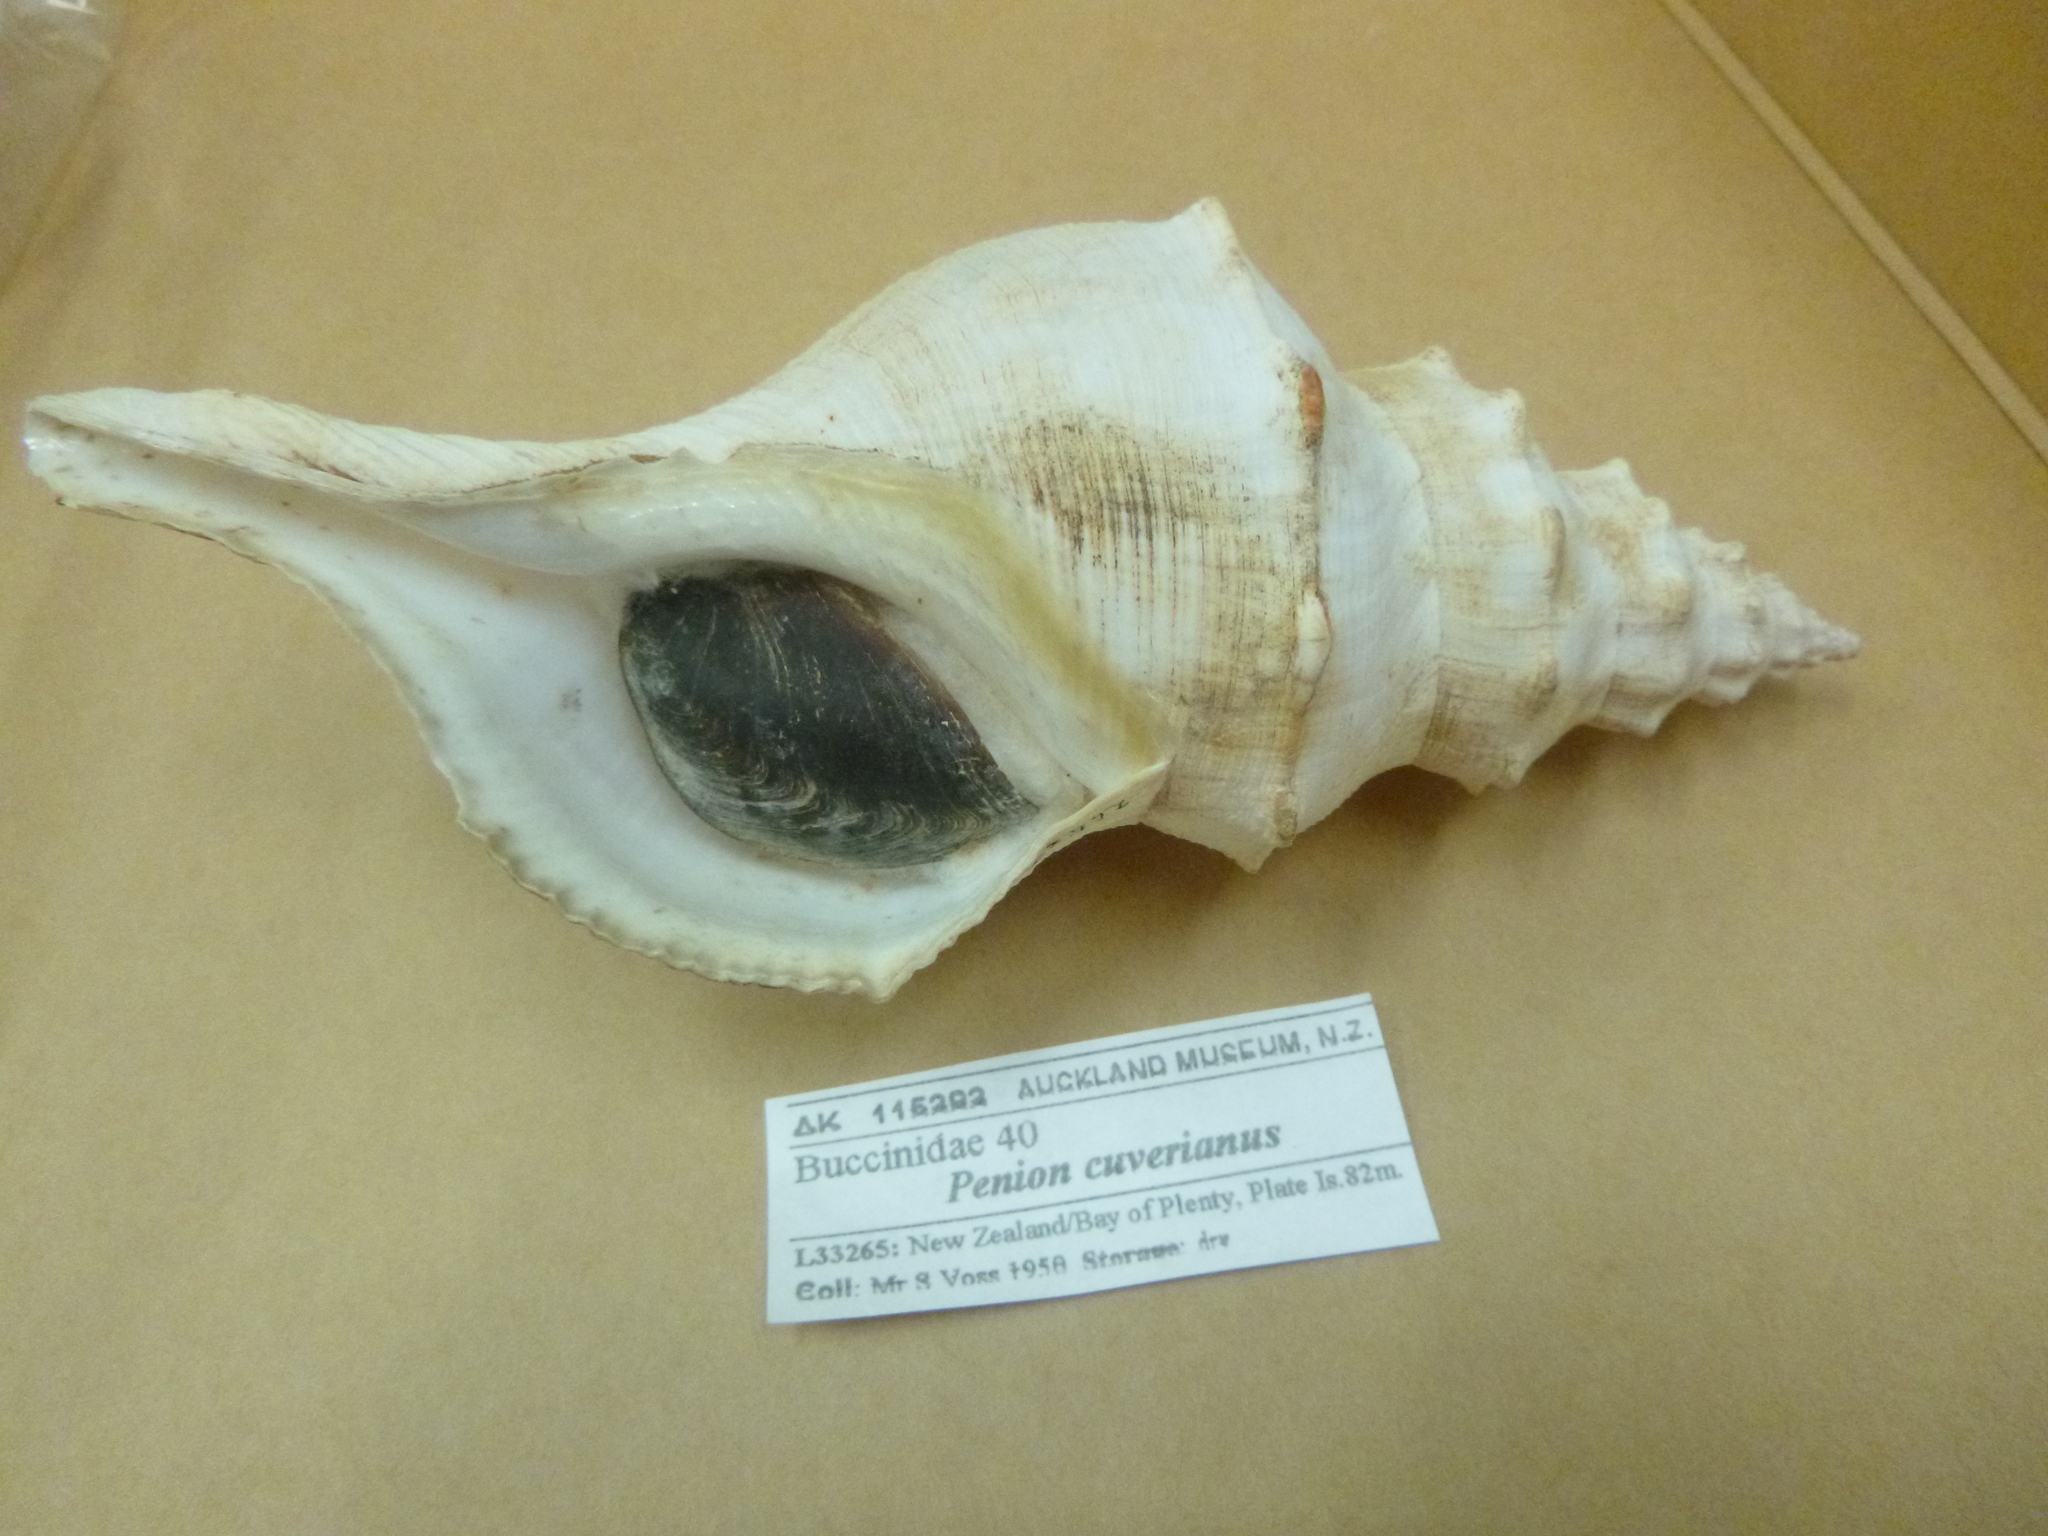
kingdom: Animalia
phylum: Mollusca
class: Gastropoda
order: Neogastropoda
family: Austrosiphonidae
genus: Penion
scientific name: Penion cuvierianus
